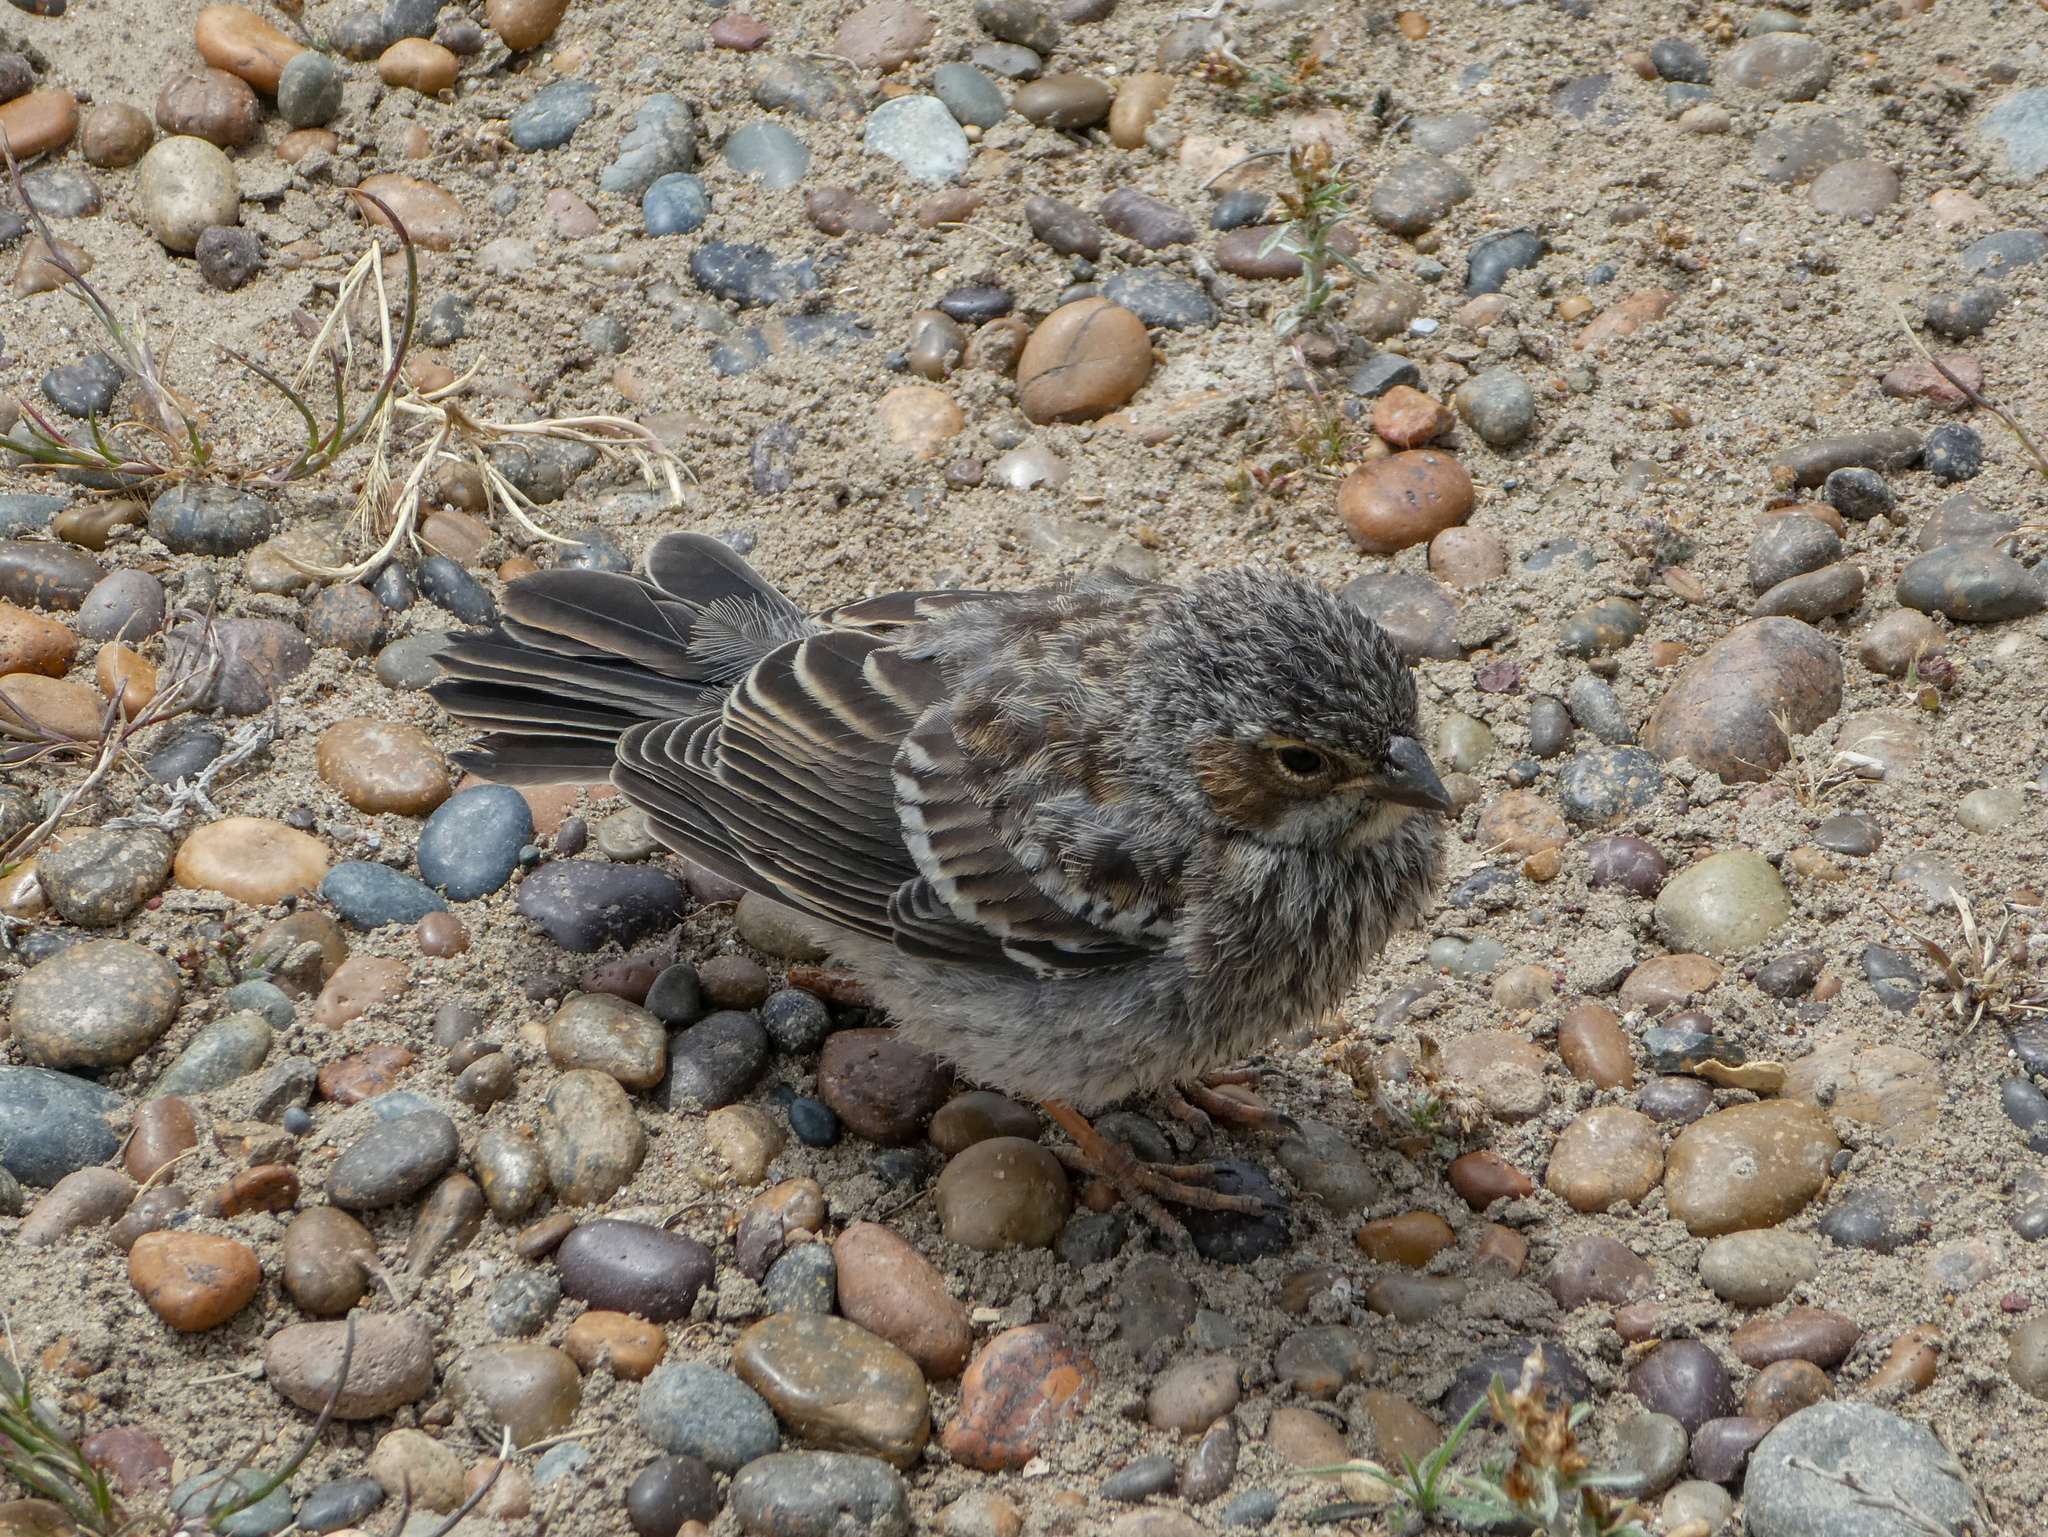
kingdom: Animalia
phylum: Chordata
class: Aves
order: Passeriformes
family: Thraupidae
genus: Rhopospina
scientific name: Rhopospina fruticeti
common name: Mourning sierra finch
